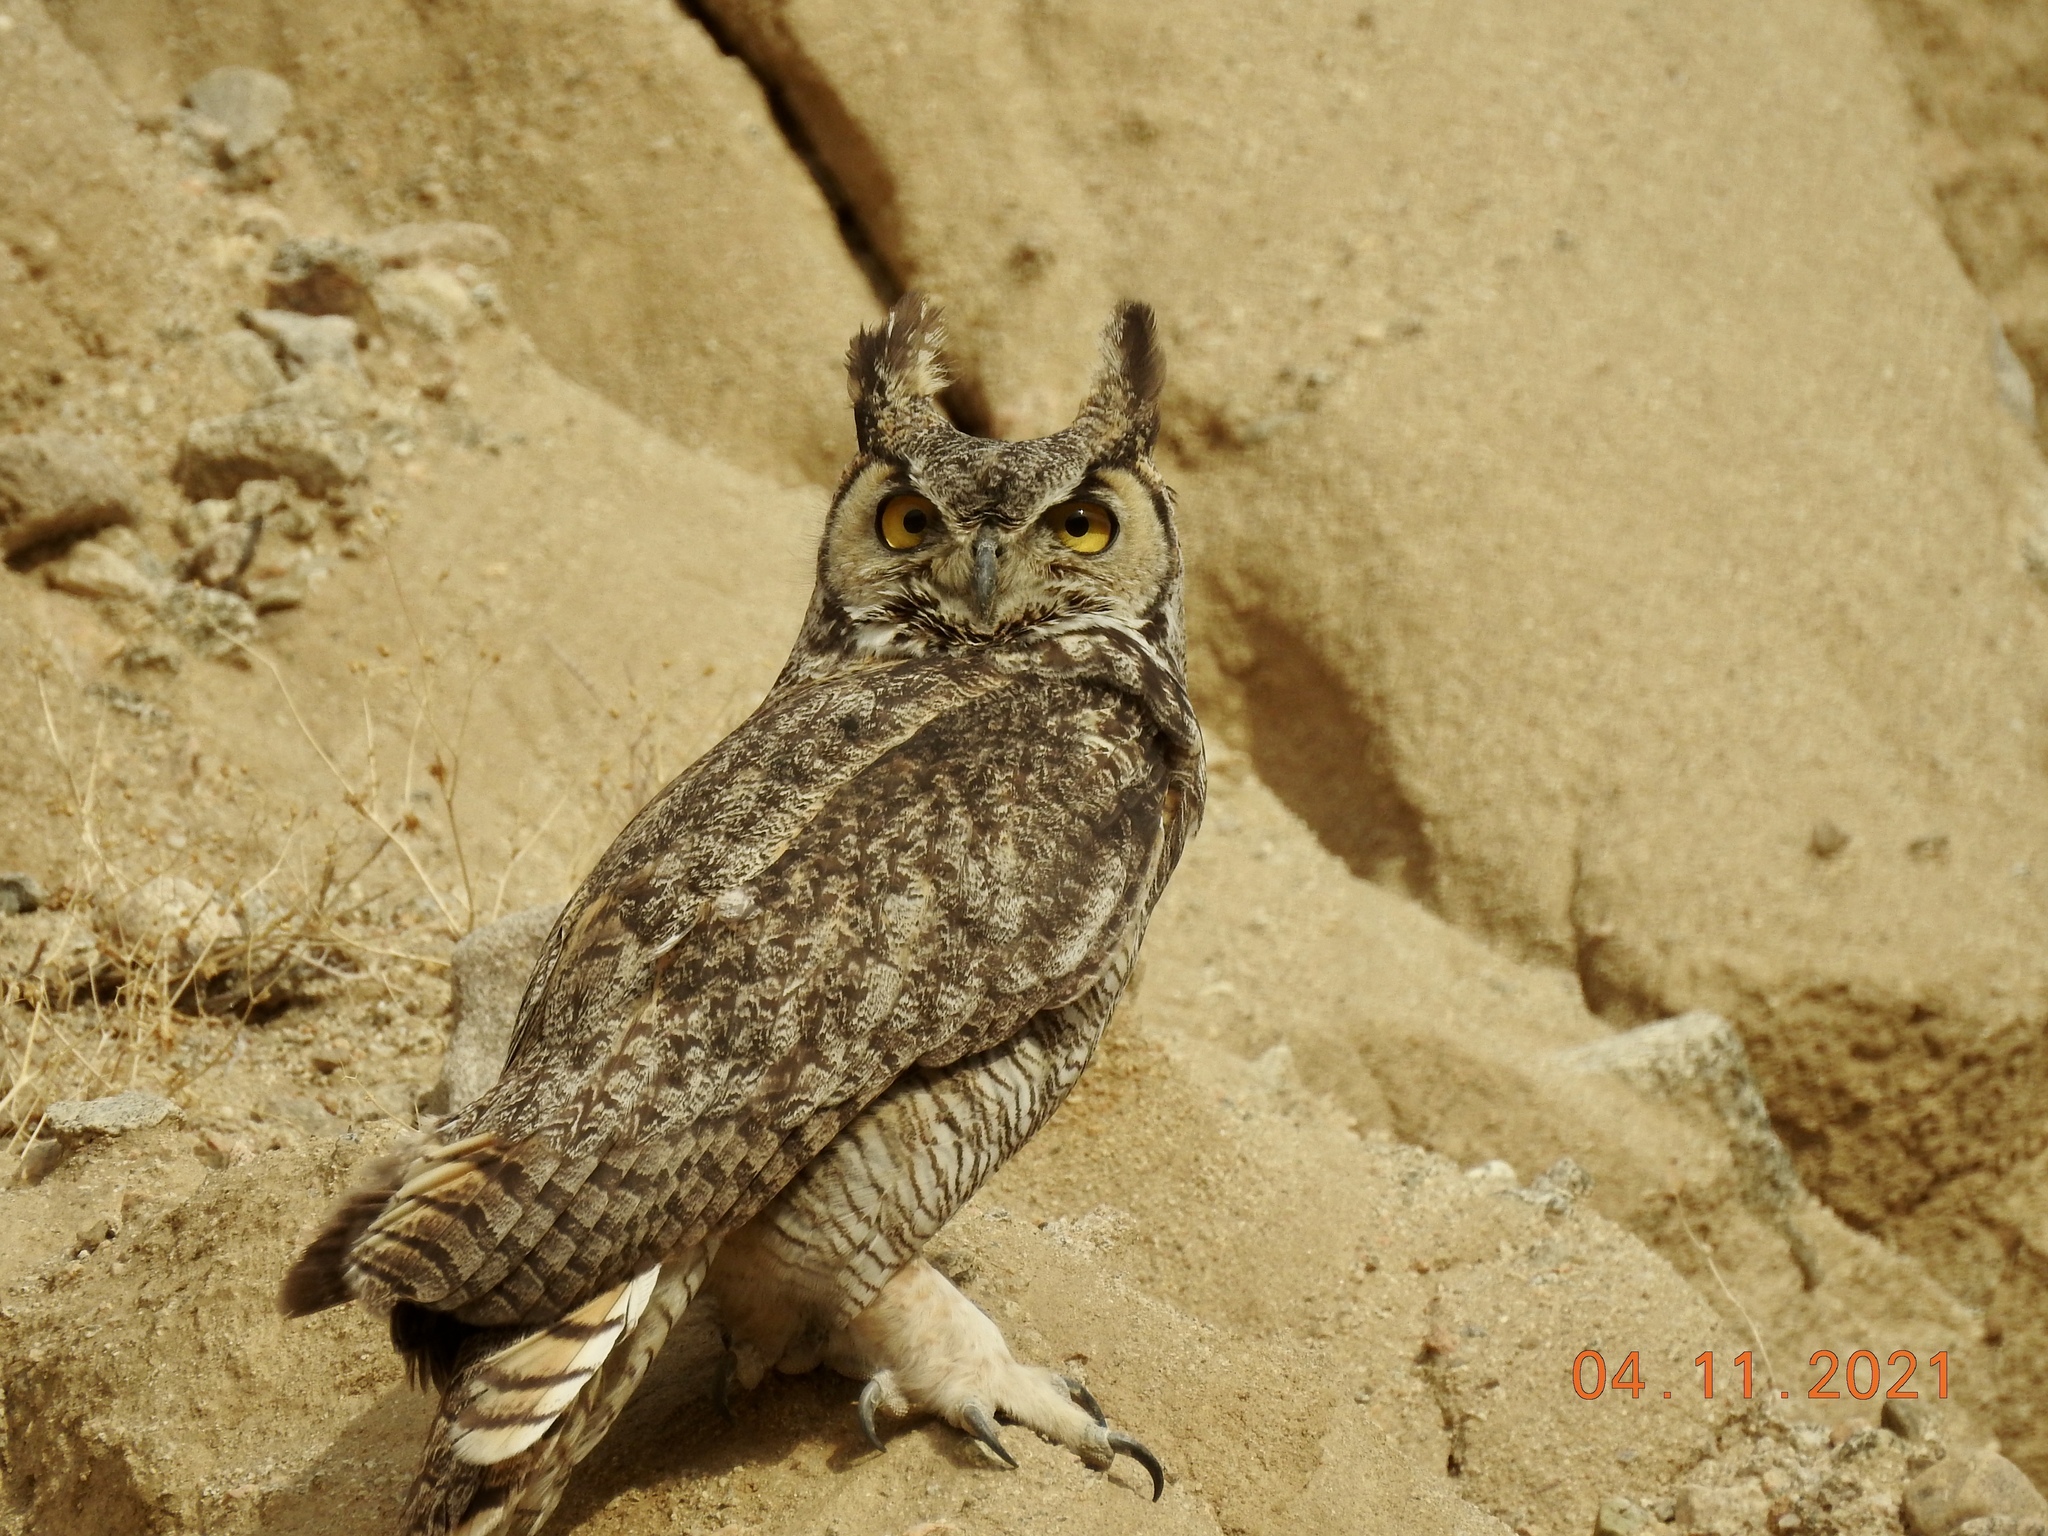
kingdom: Animalia
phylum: Chordata
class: Aves
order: Strigiformes
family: Strigidae
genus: Bubo
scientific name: Bubo virginianus
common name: Great horned owl
